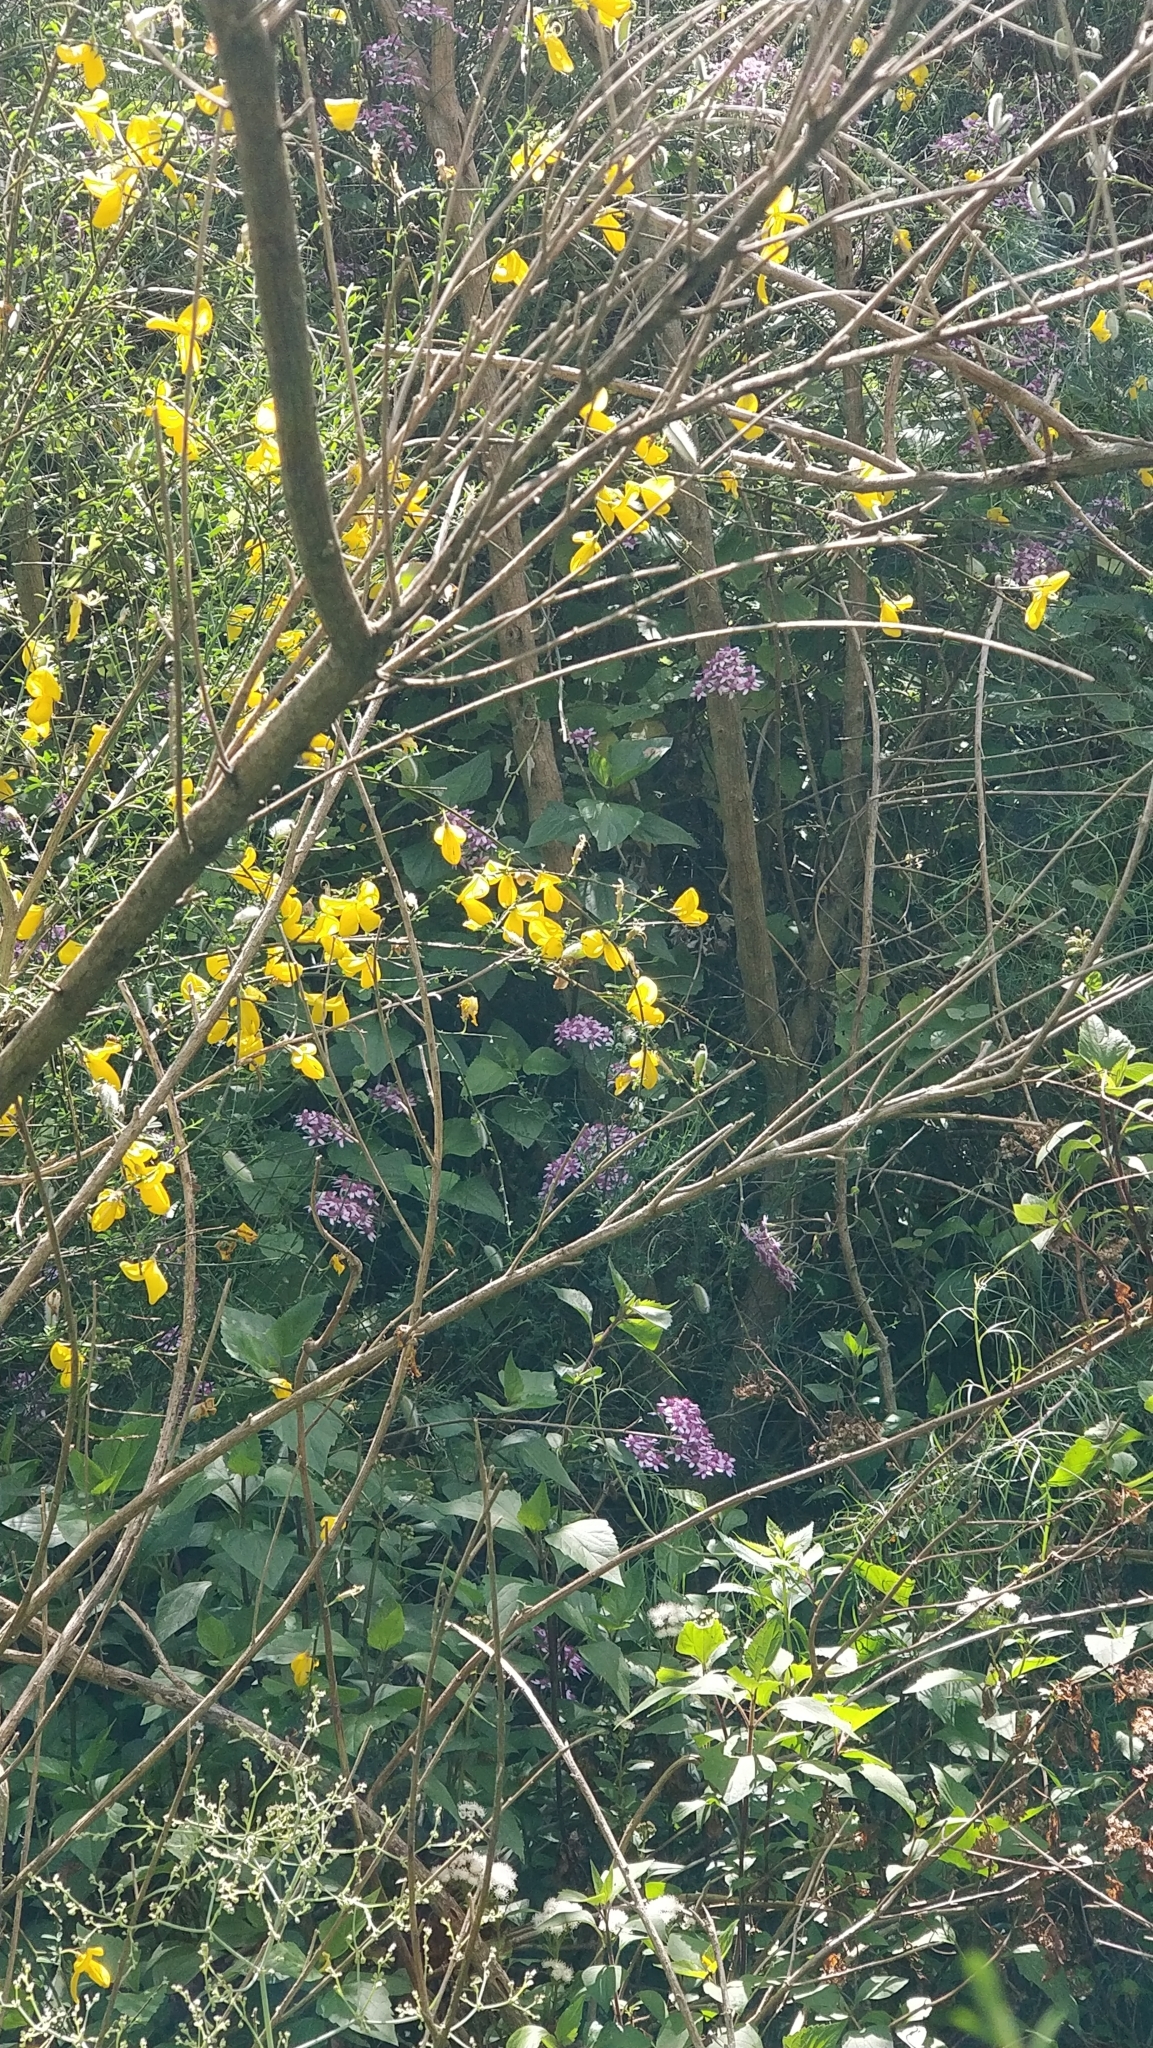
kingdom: Plantae
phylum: Tracheophyta
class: Magnoliopsida
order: Asterales
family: Asteraceae
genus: Pericallis
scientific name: Pericallis aurita
